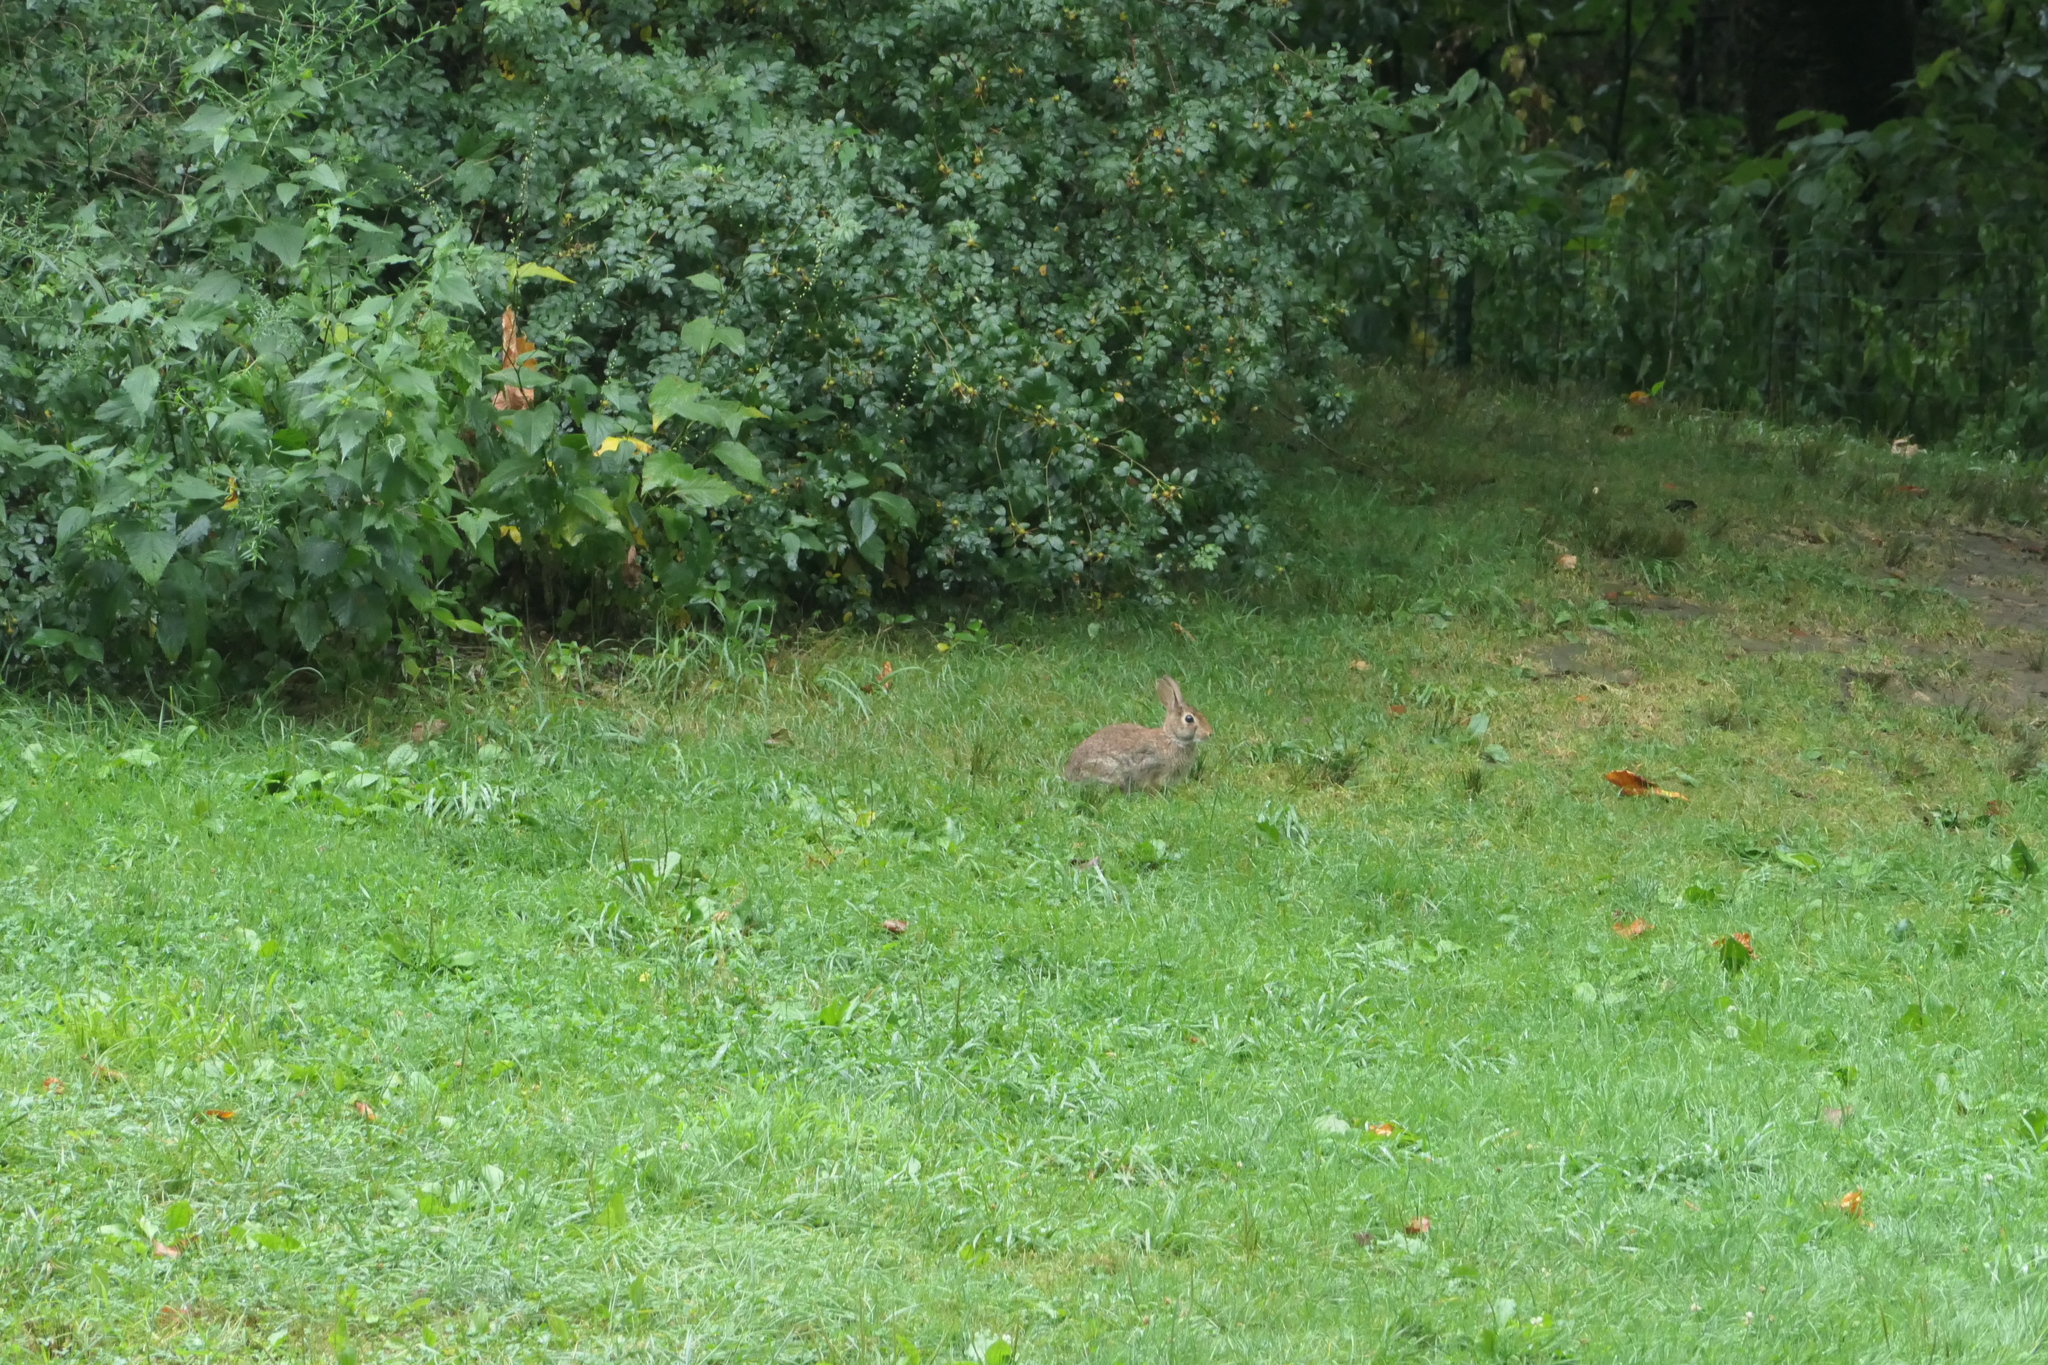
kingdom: Animalia
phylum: Chordata
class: Mammalia
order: Lagomorpha
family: Leporidae
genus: Sylvilagus
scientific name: Sylvilagus floridanus
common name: Eastern cottontail
